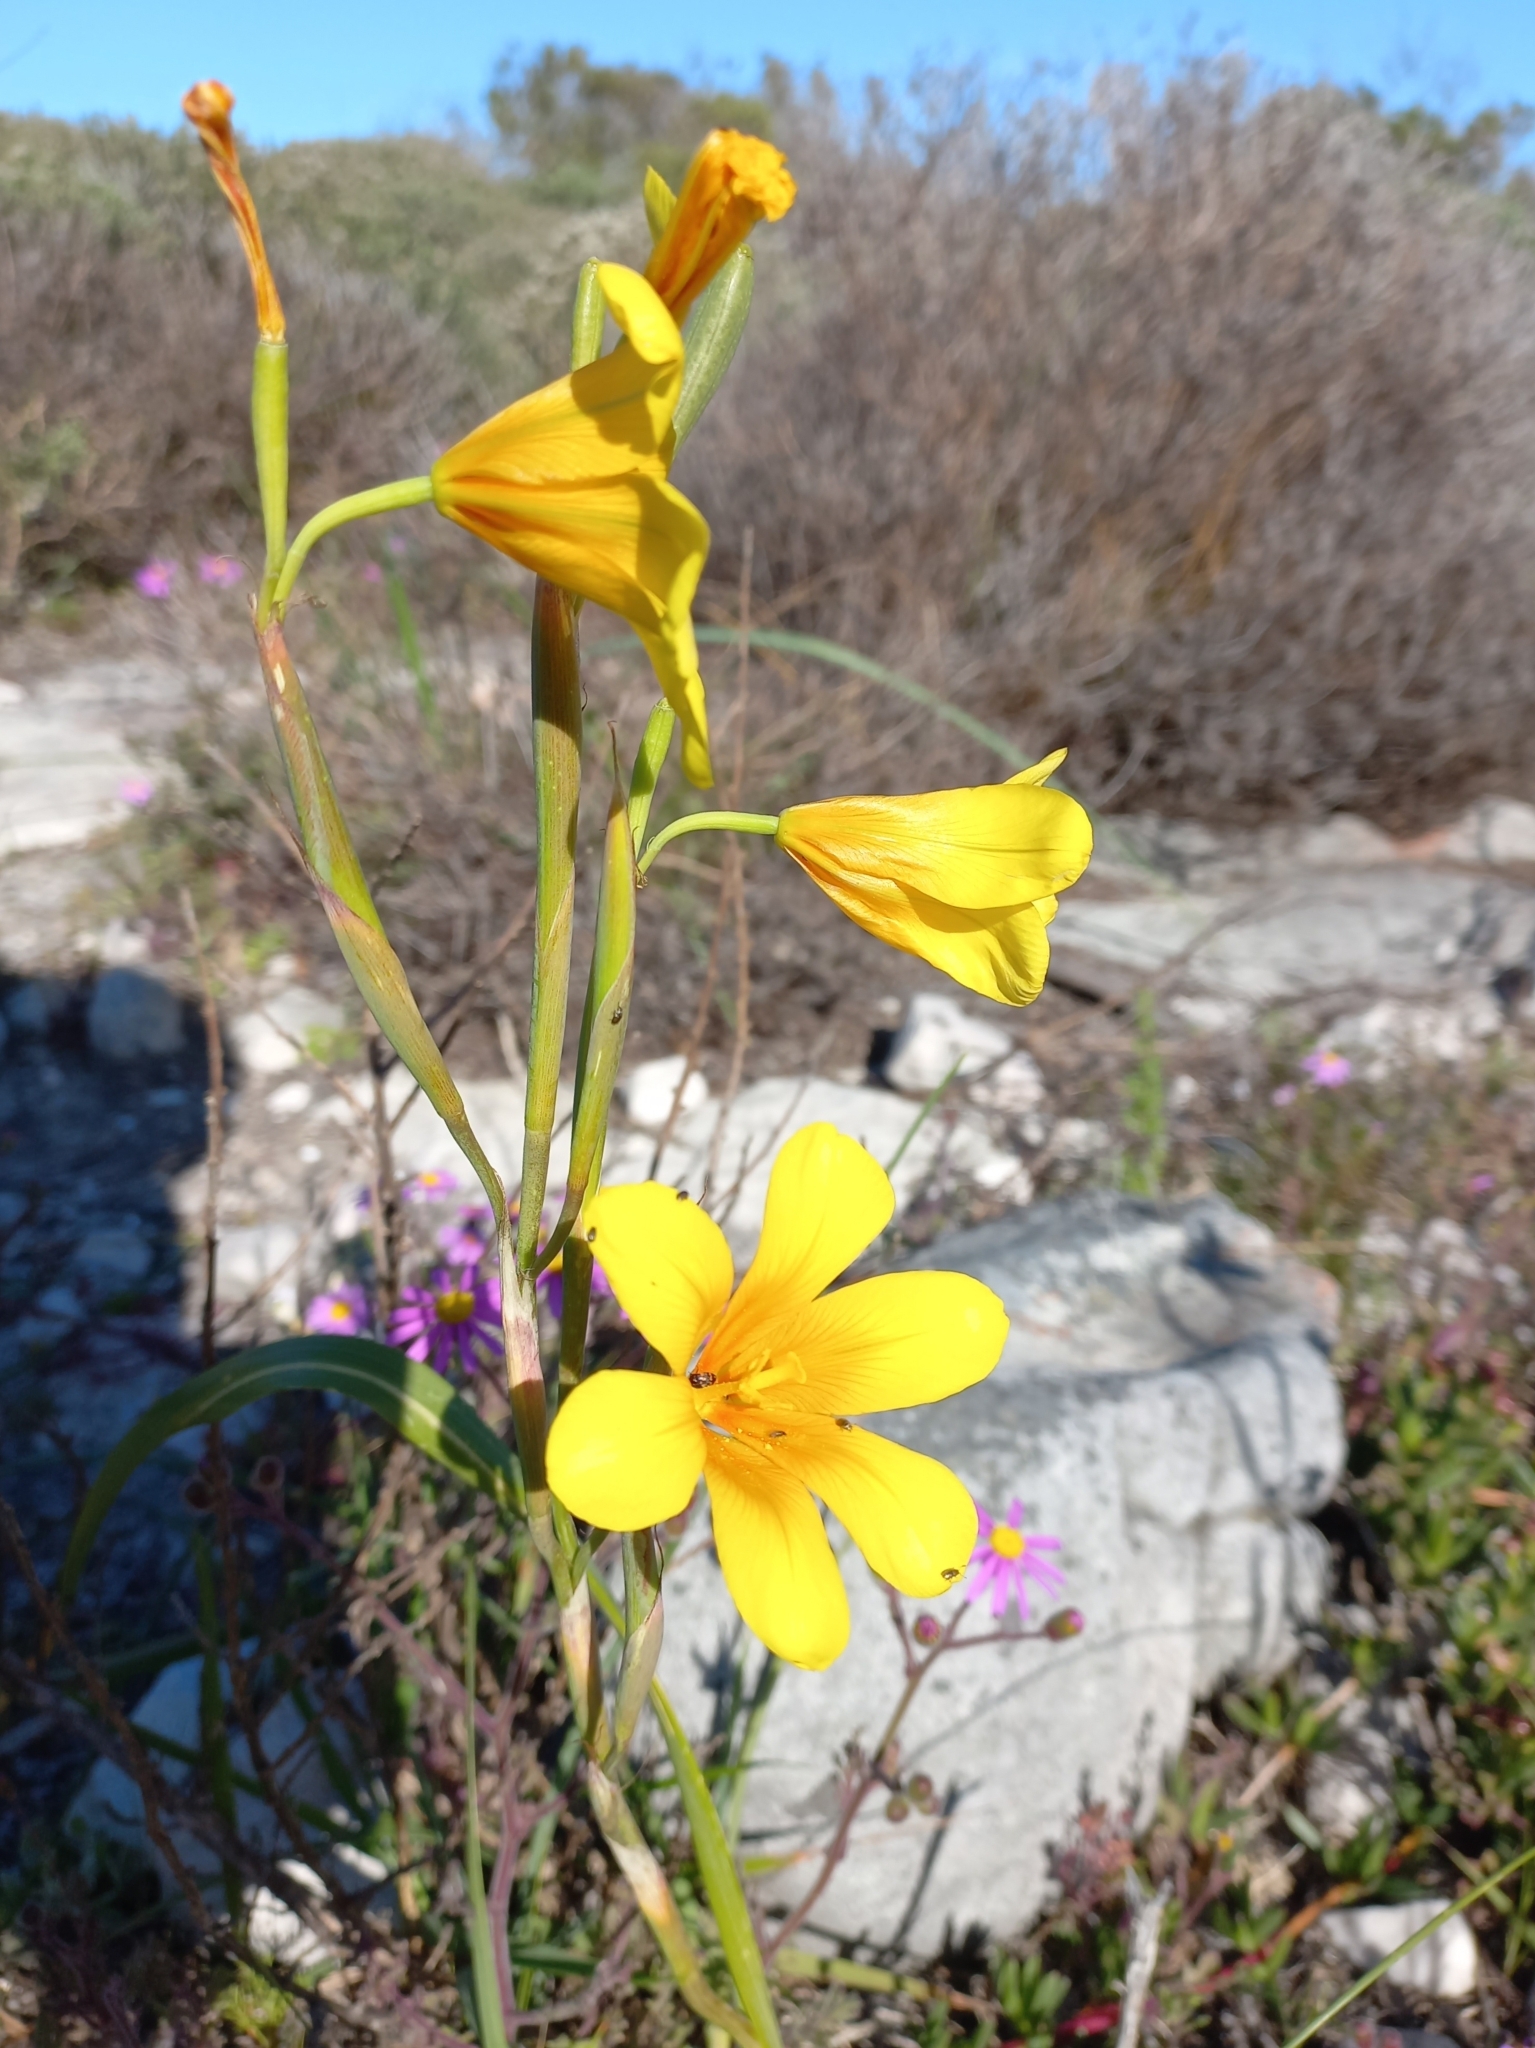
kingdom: Plantae
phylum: Tracheophyta
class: Liliopsida
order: Asparagales
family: Iridaceae
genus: Moraea
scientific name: Moraea ochroleuca
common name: Red tulp
